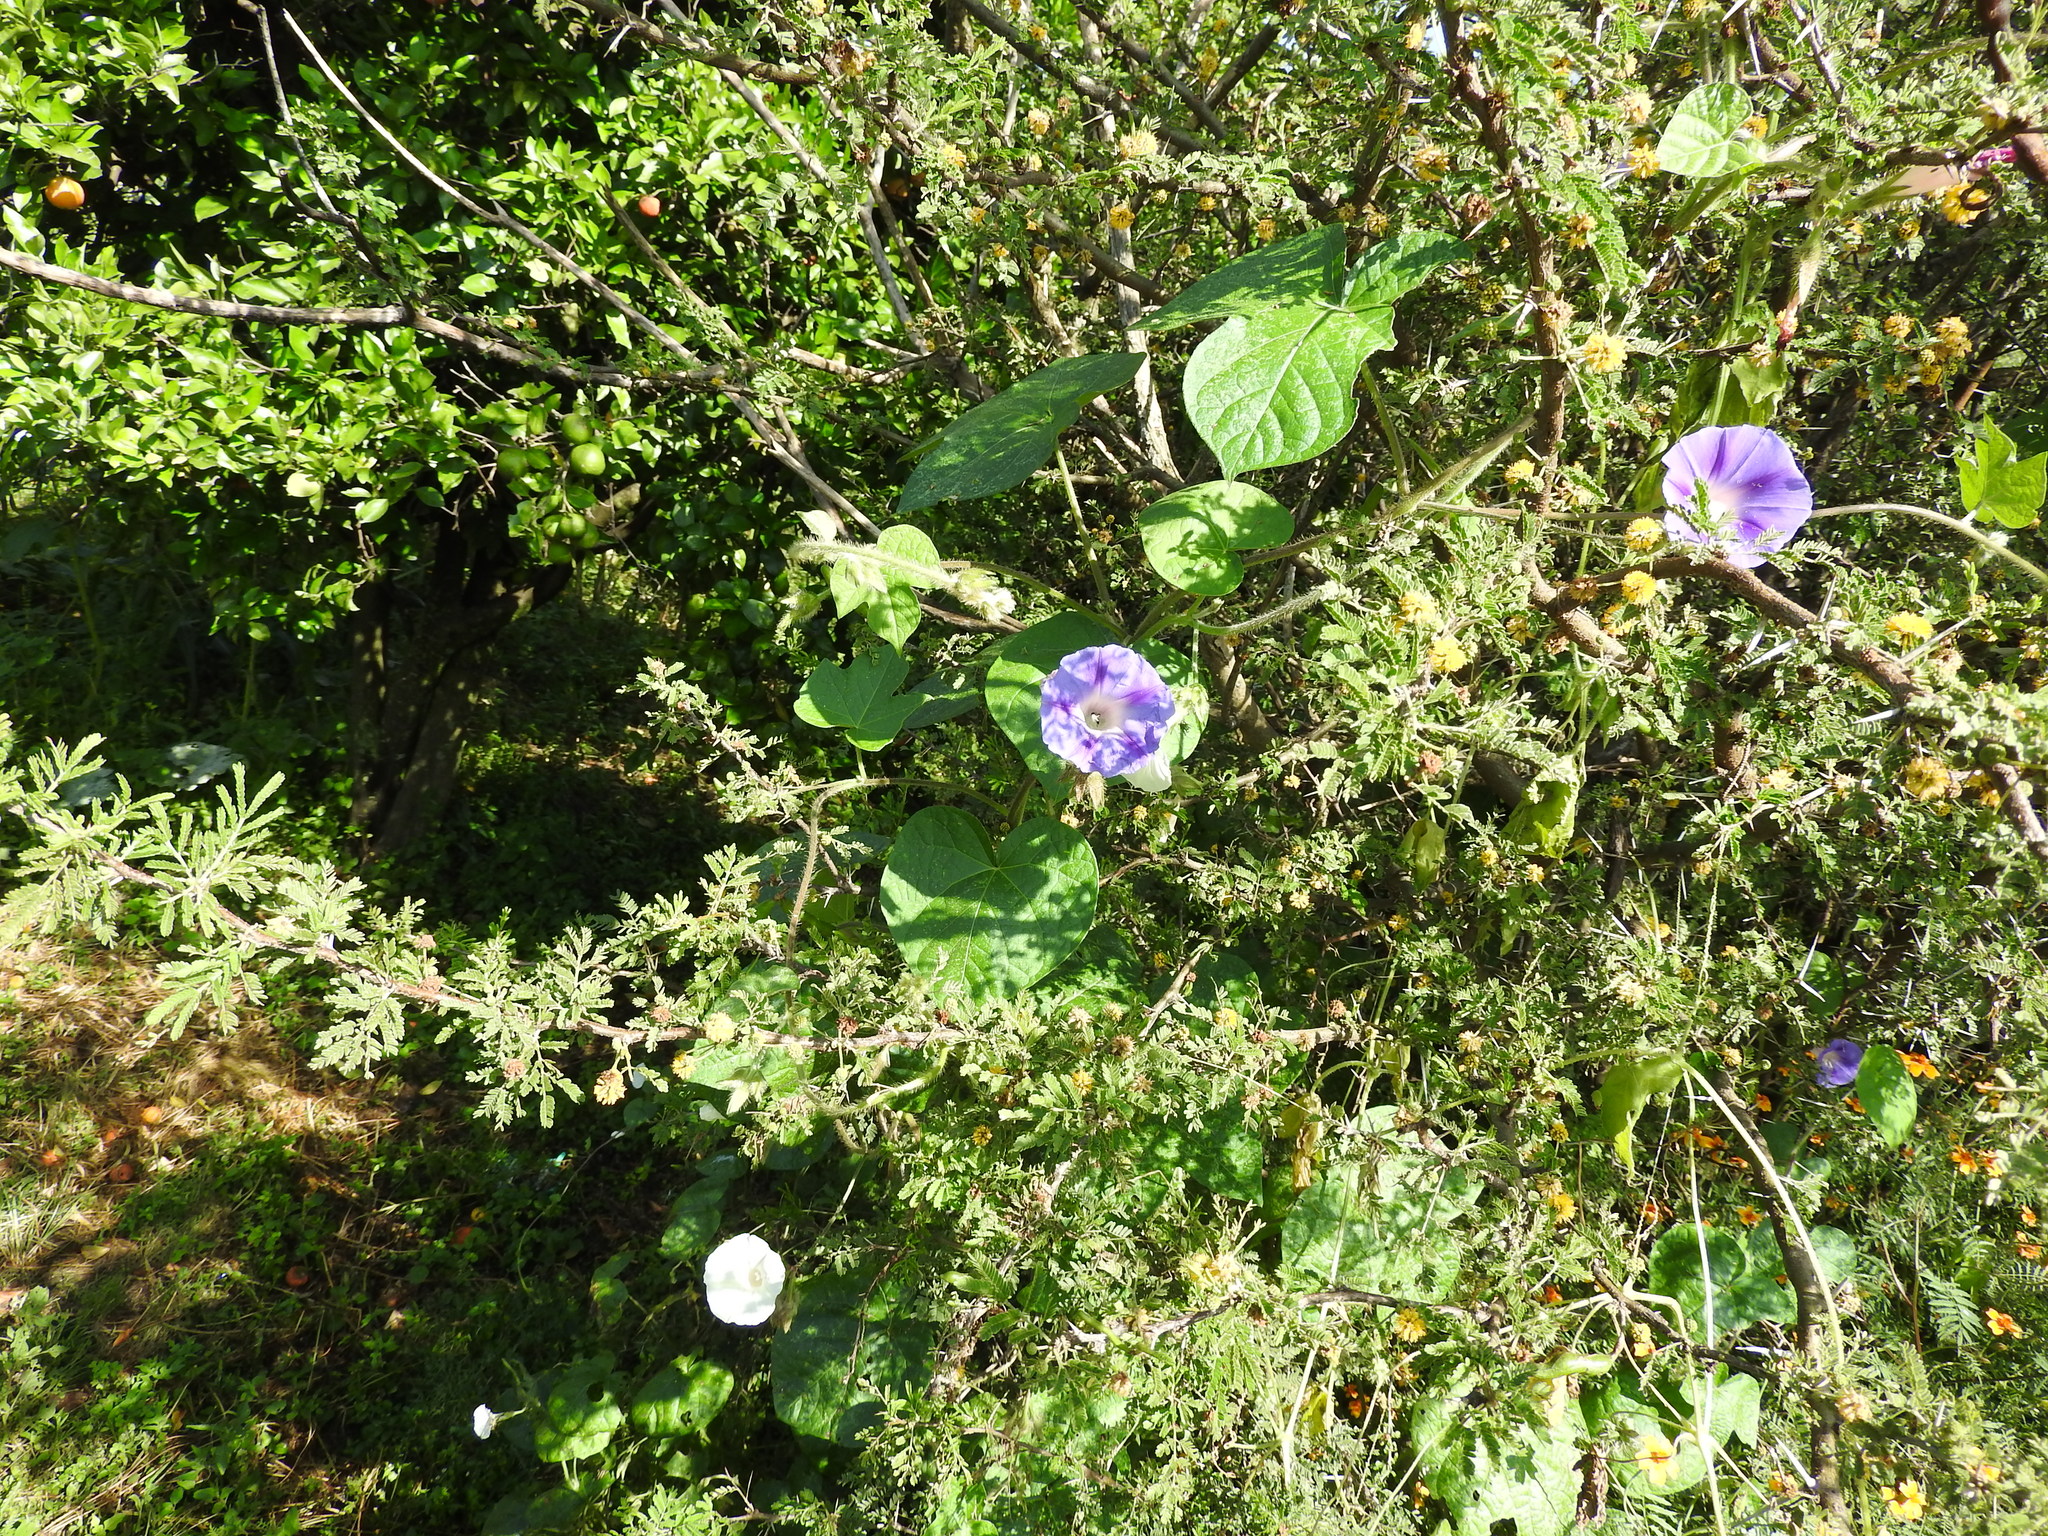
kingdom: Plantae
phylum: Tracheophyta
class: Magnoliopsida
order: Solanales
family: Convolvulaceae
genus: Ipomoea
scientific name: Ipomoea purpurea
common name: Common morning-glory
